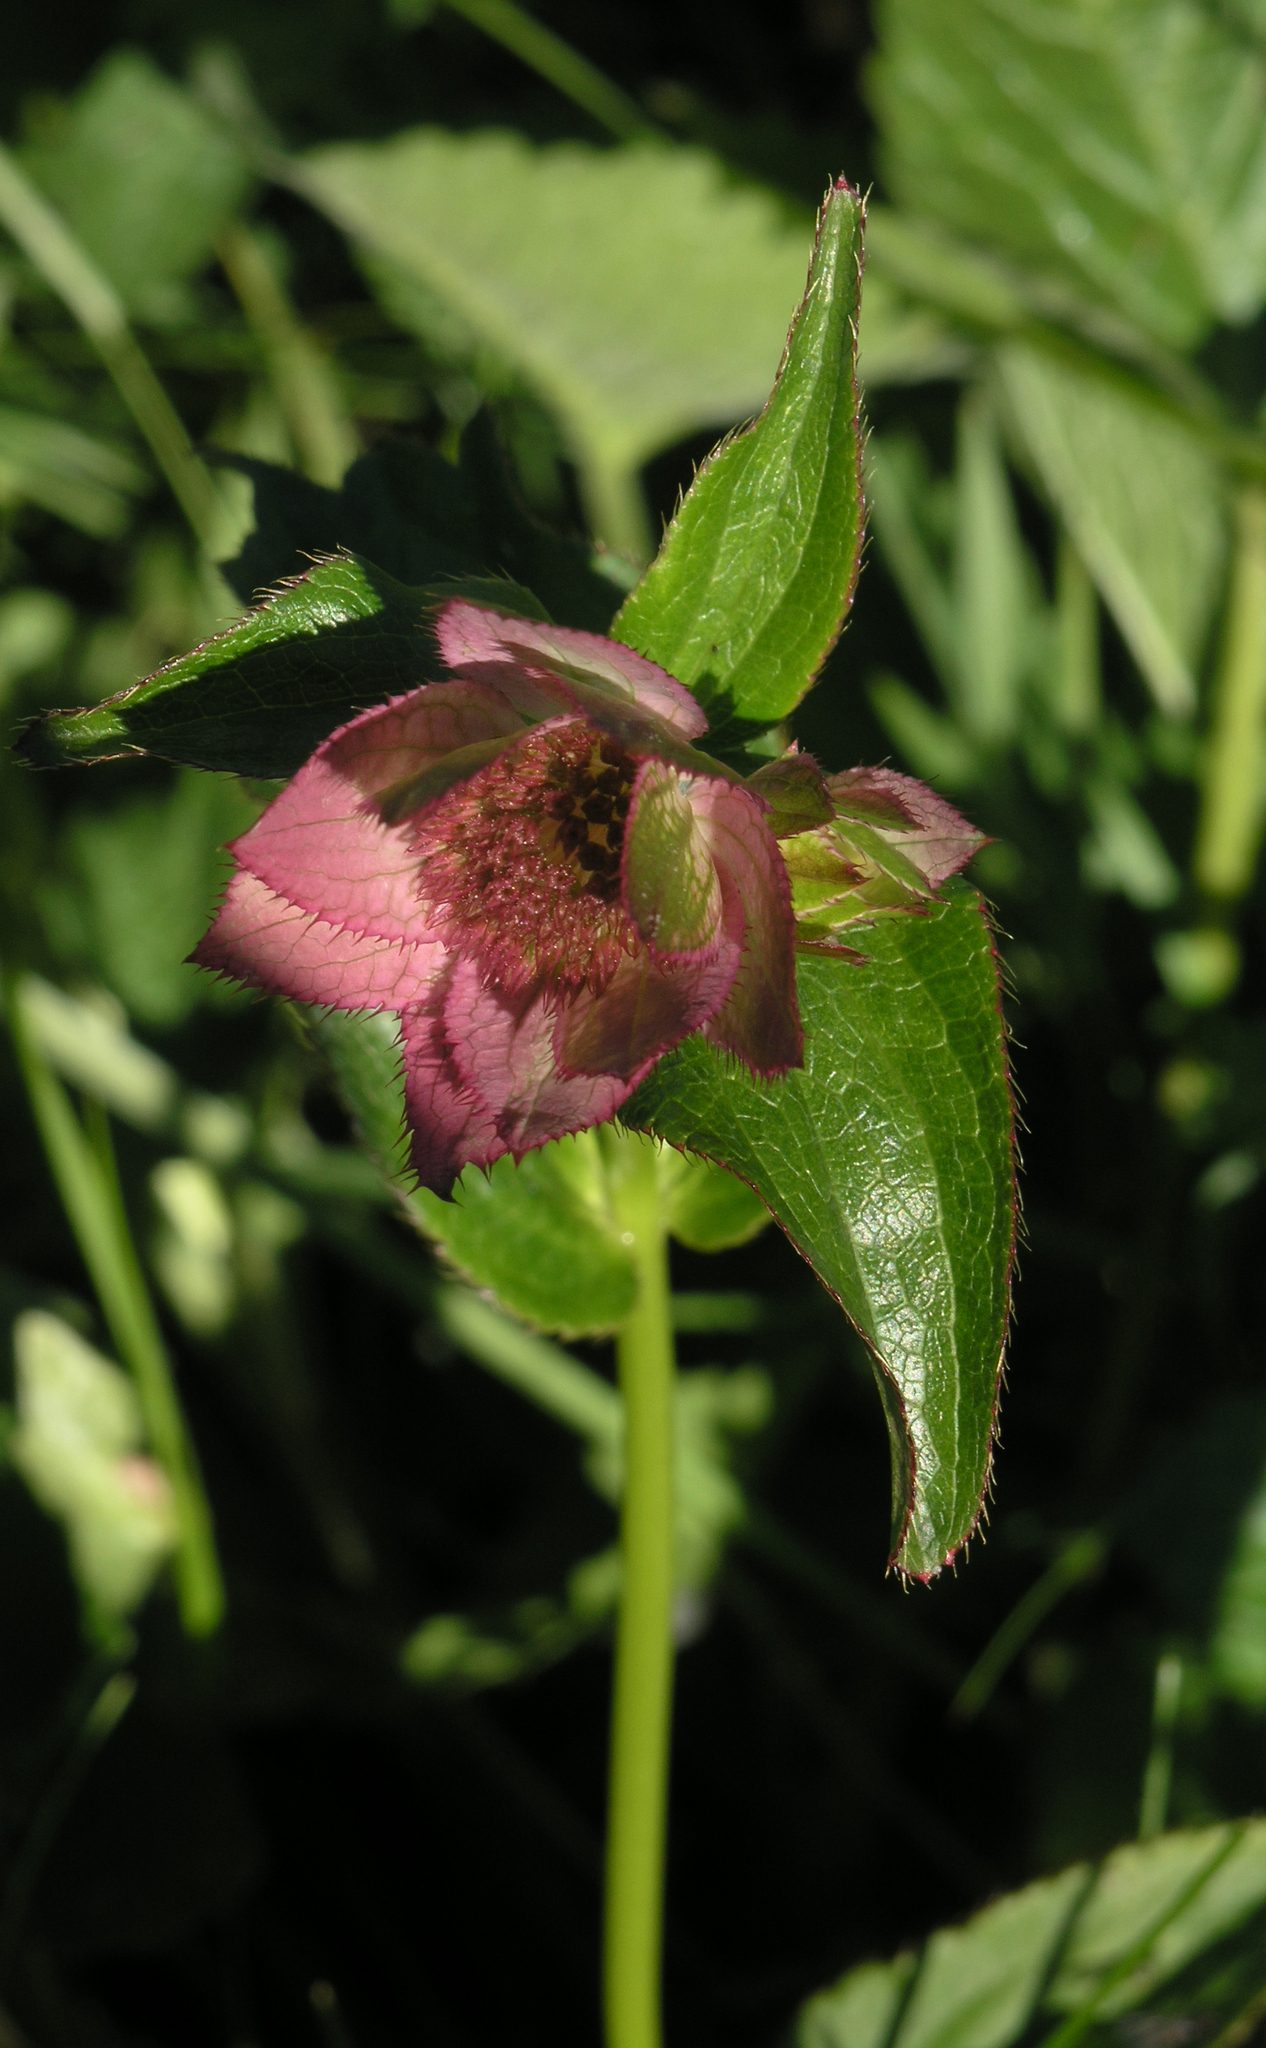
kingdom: Plantae
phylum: Tracheophyta
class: Magnoliopsida
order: Apiales
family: Apiaceae
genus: Astrantia
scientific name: Astrantia maxima
